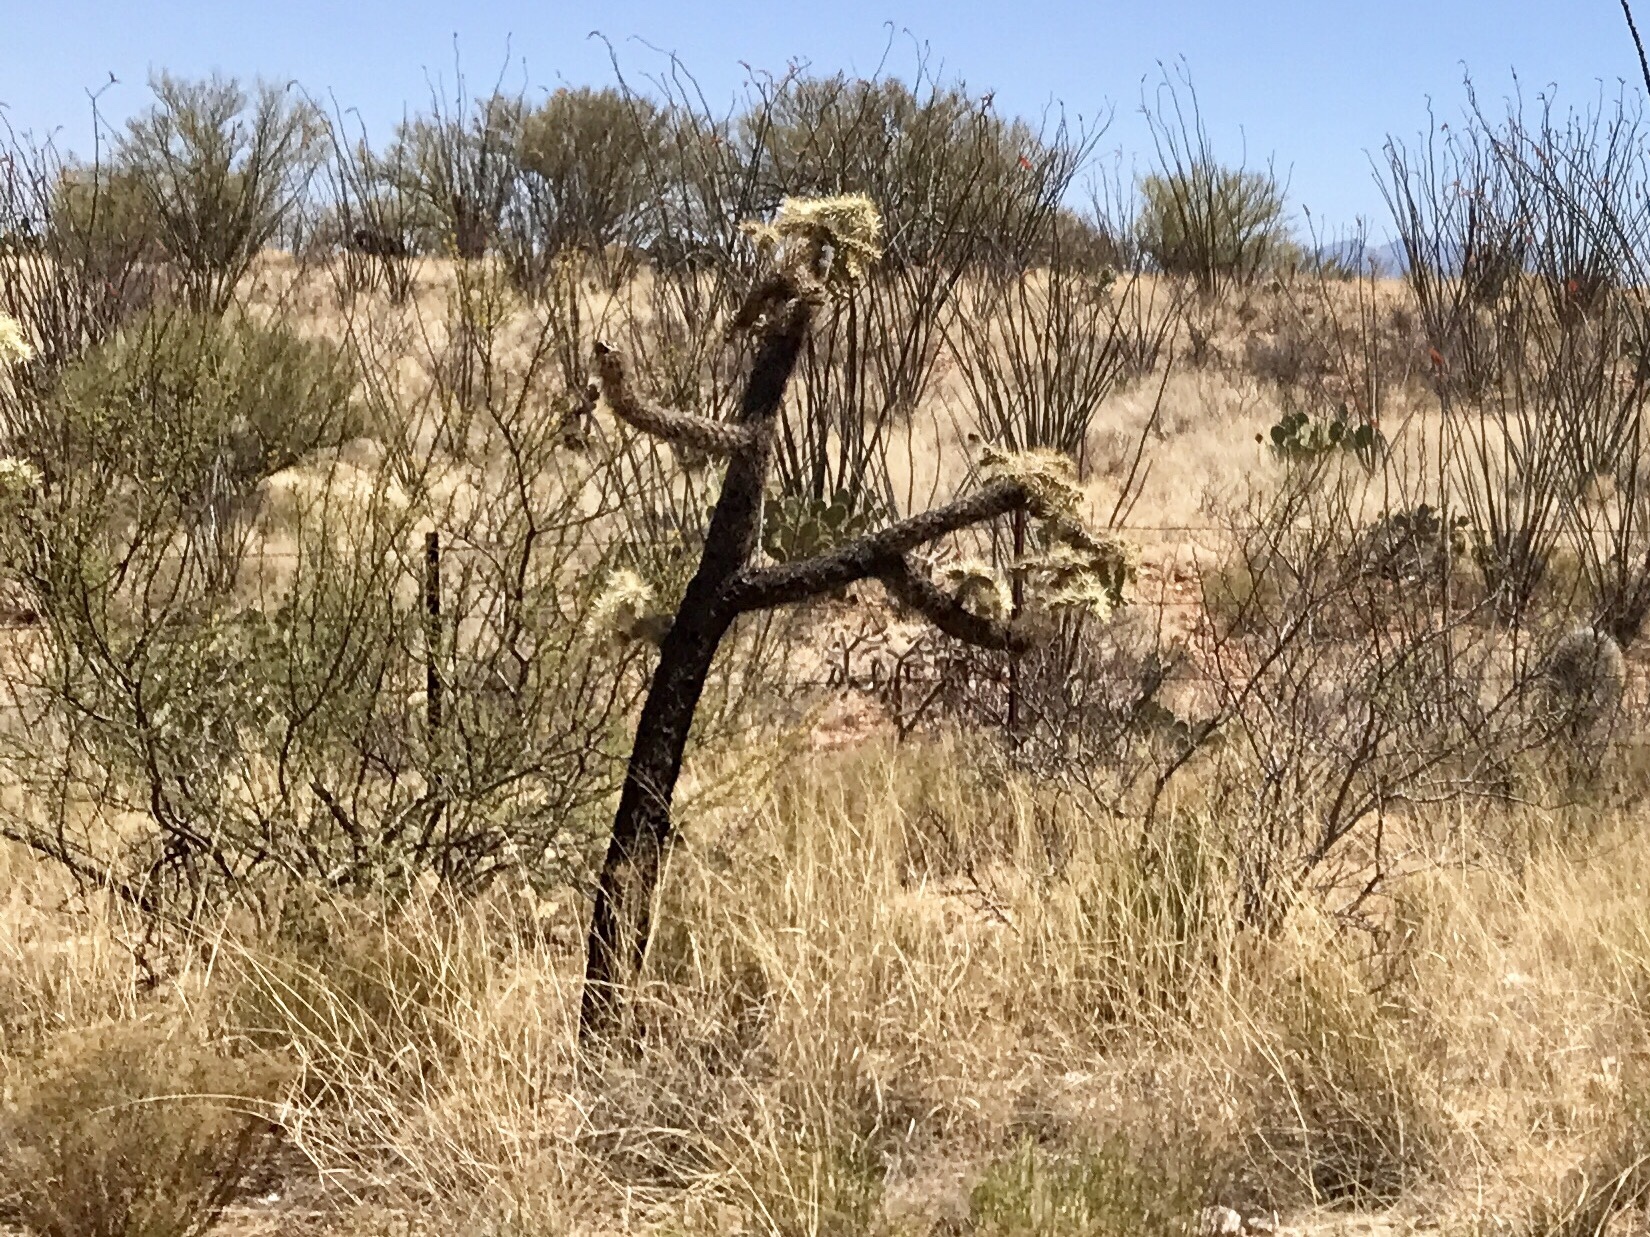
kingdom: Plantae
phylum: Tracheophyta
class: Magnoliopsida
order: Caryophyllales
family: Cactaceae
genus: Cylindropuntia
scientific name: Cylindropuntia fulgida
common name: Jumping cholla
